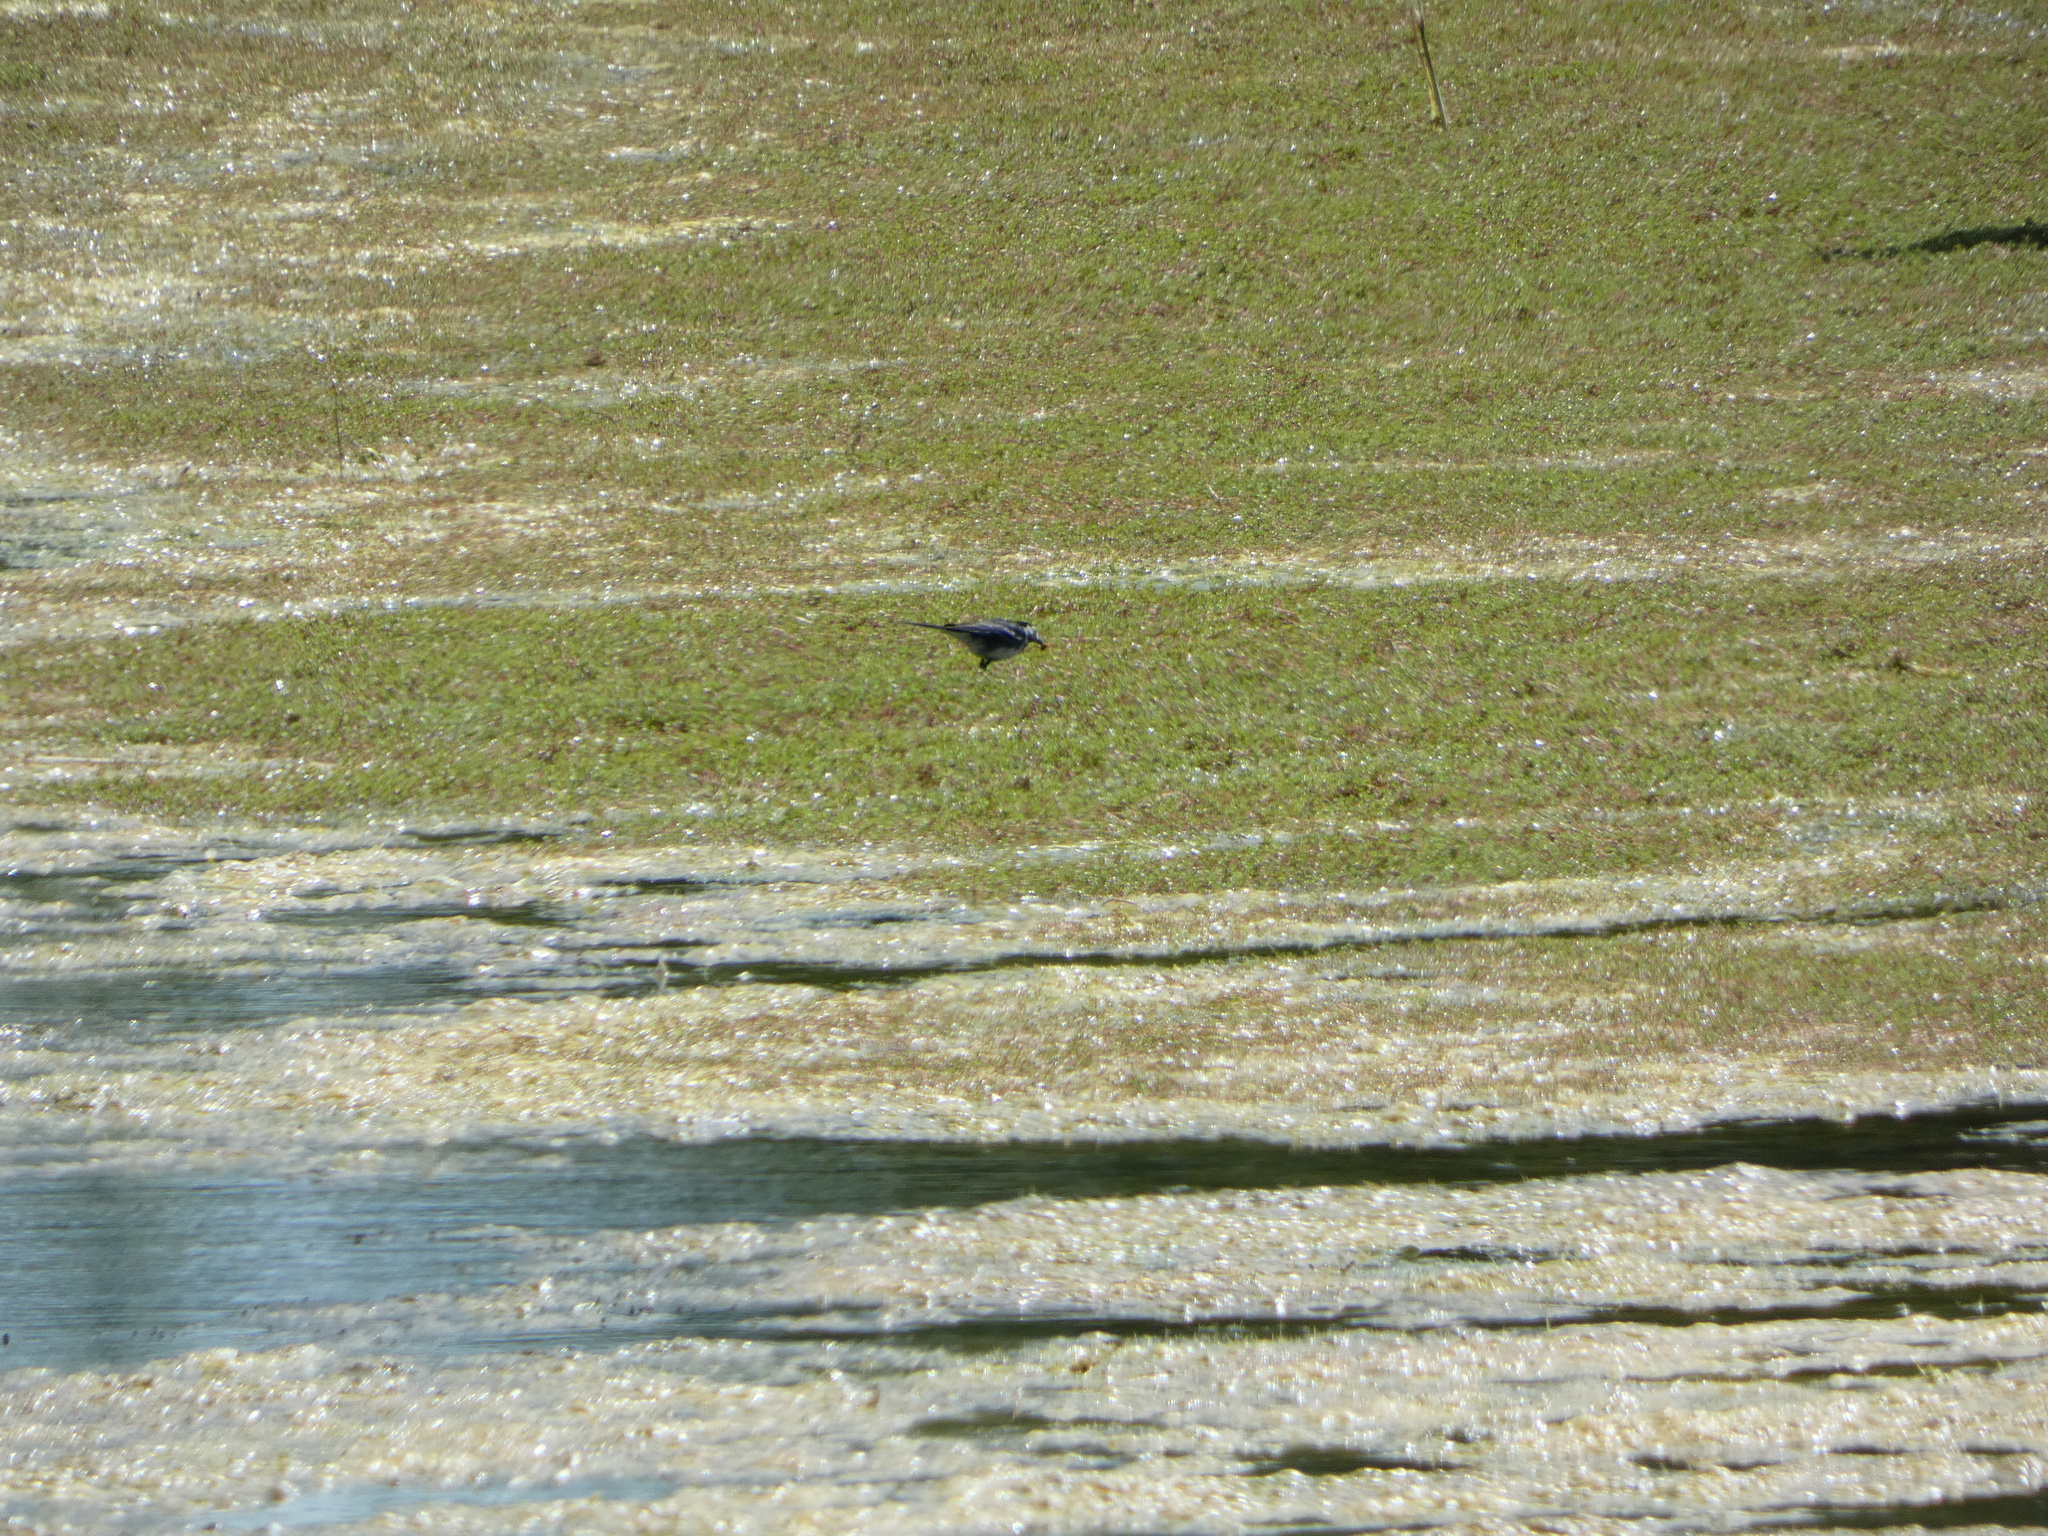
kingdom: Animalia
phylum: Chordata
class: Aves
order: Passeriformes
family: Motacillidae
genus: Motacilla
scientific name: Motacilla alba
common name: White wagtail
